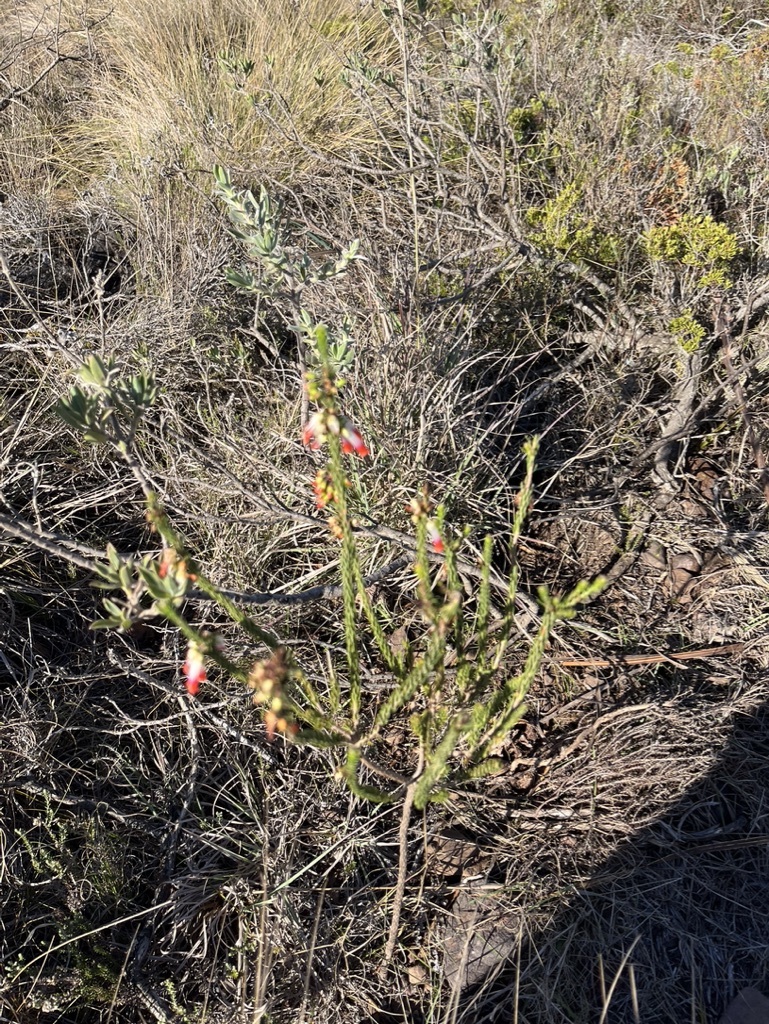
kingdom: Plantae
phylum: Tracheophyta
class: Magnoliopsida
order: Ericales
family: Ericaceae
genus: Erica
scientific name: Erica regia
